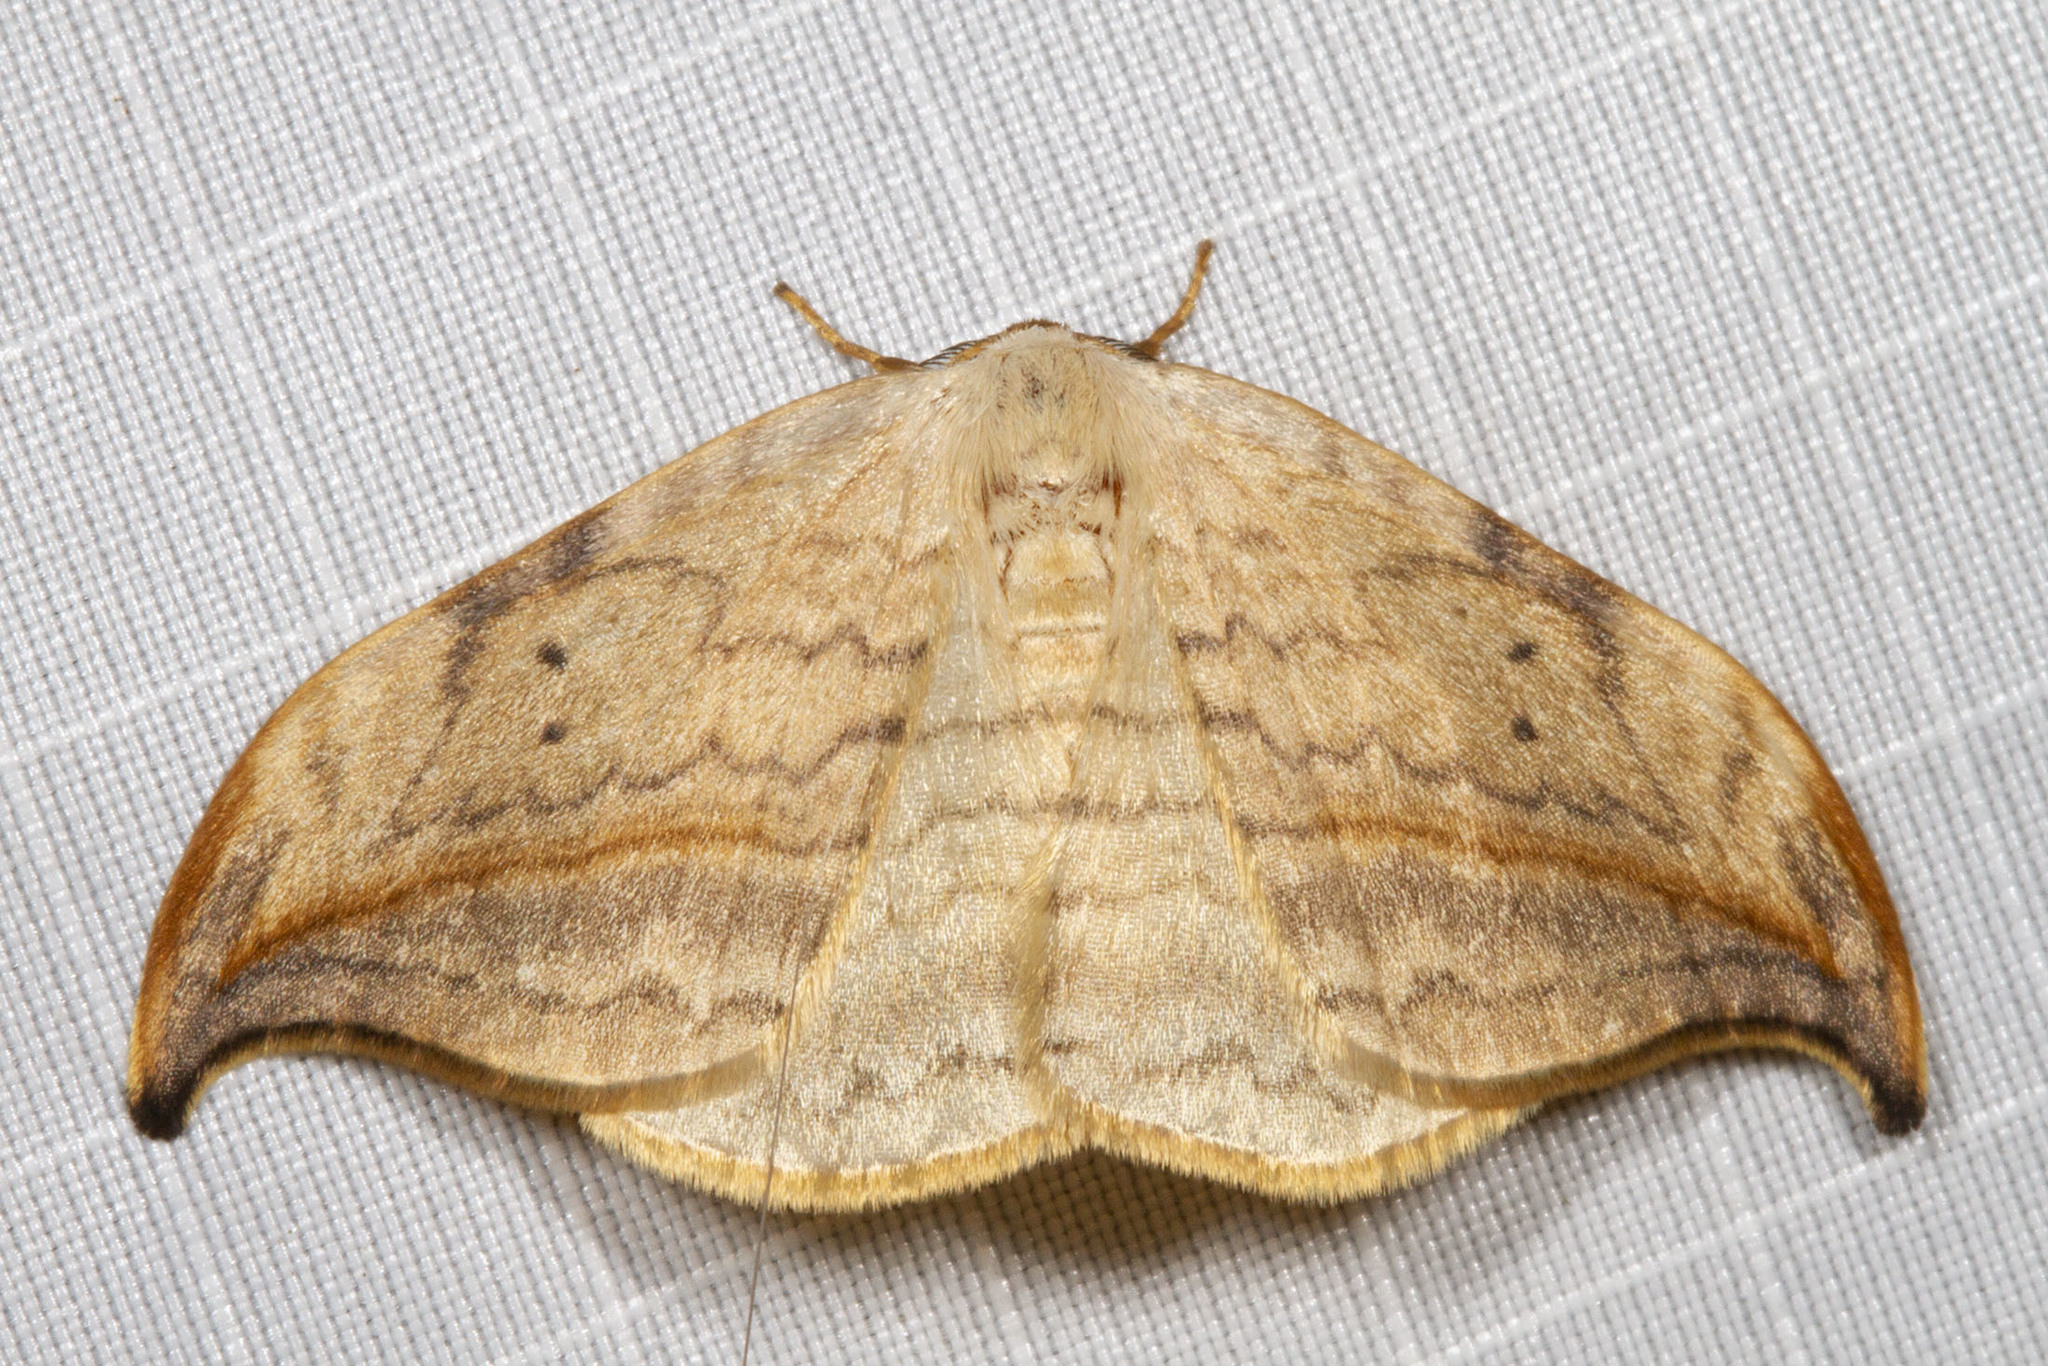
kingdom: Animalia
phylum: Arthropoda
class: Insecta
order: Lepidoptera
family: Drepanidae
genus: Drepana
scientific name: Drepana arcuata
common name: Arched hooktip moth
